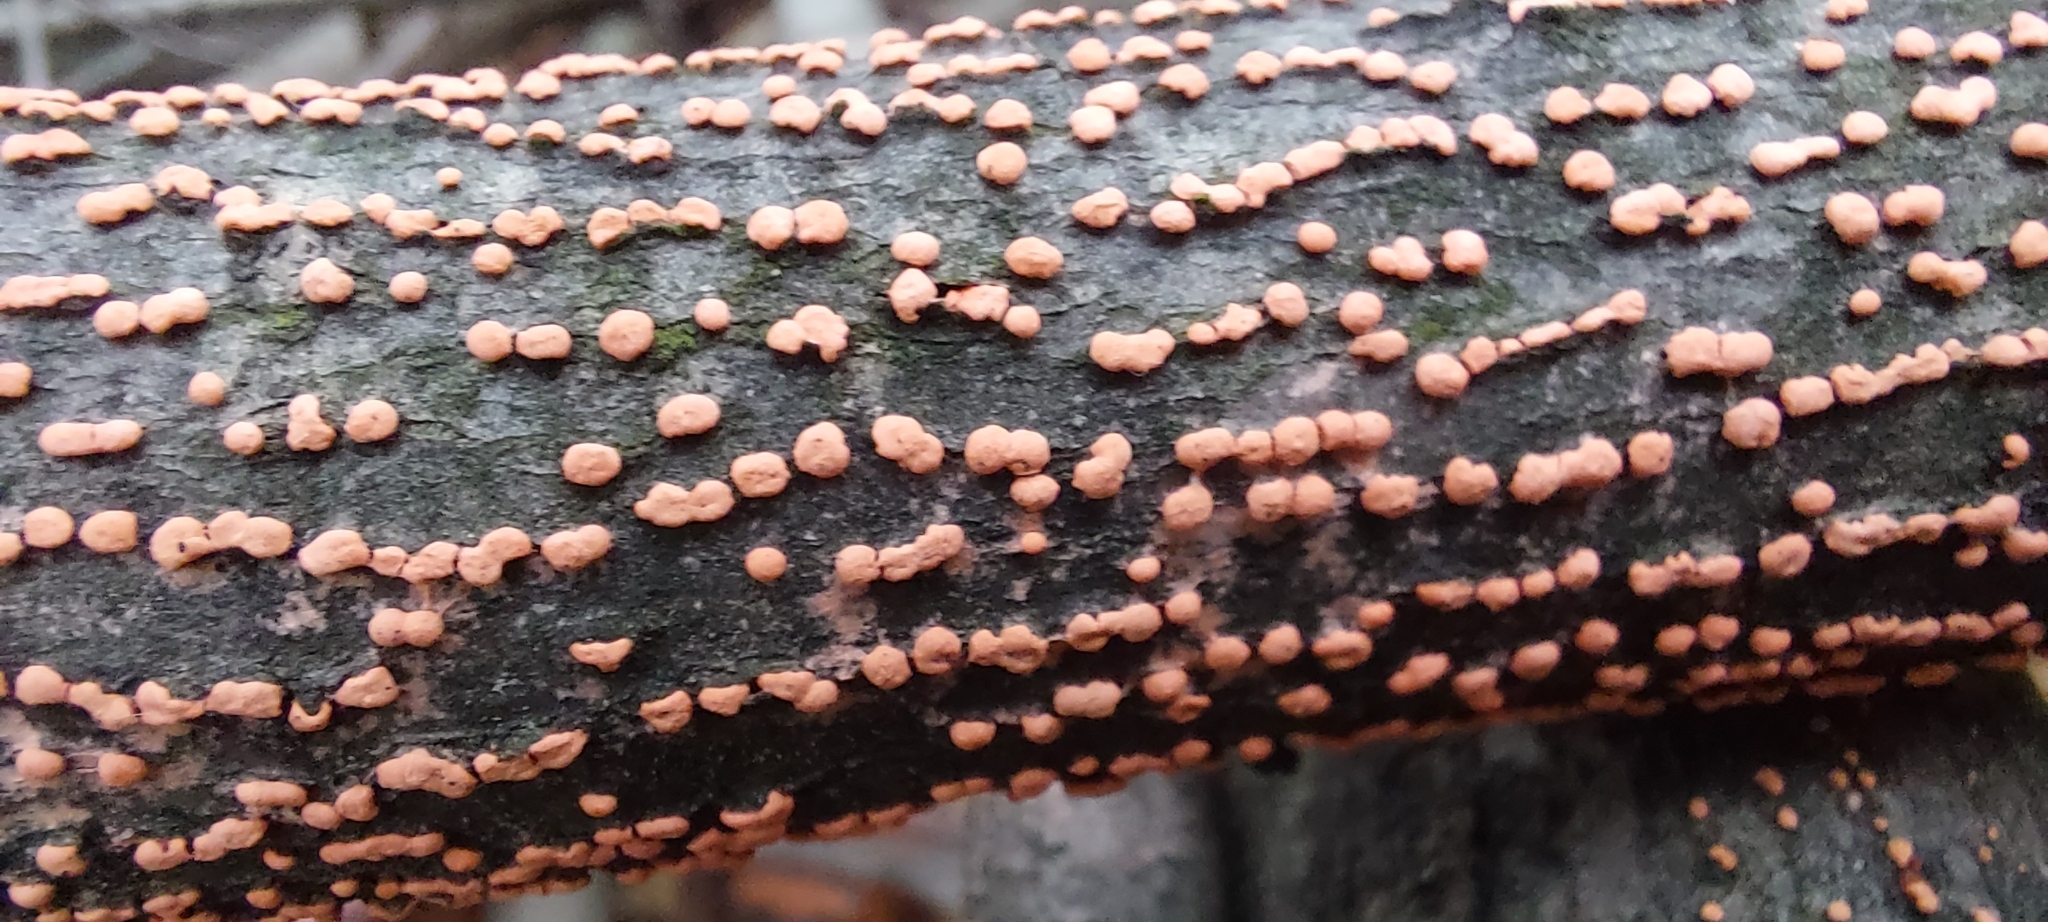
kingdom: Fungi
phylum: Ascomycota
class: Sordariomycetes
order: Hypocreales
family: Nectriaceae
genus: Nectria
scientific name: Nectria cinnabarina
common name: Coral spot
